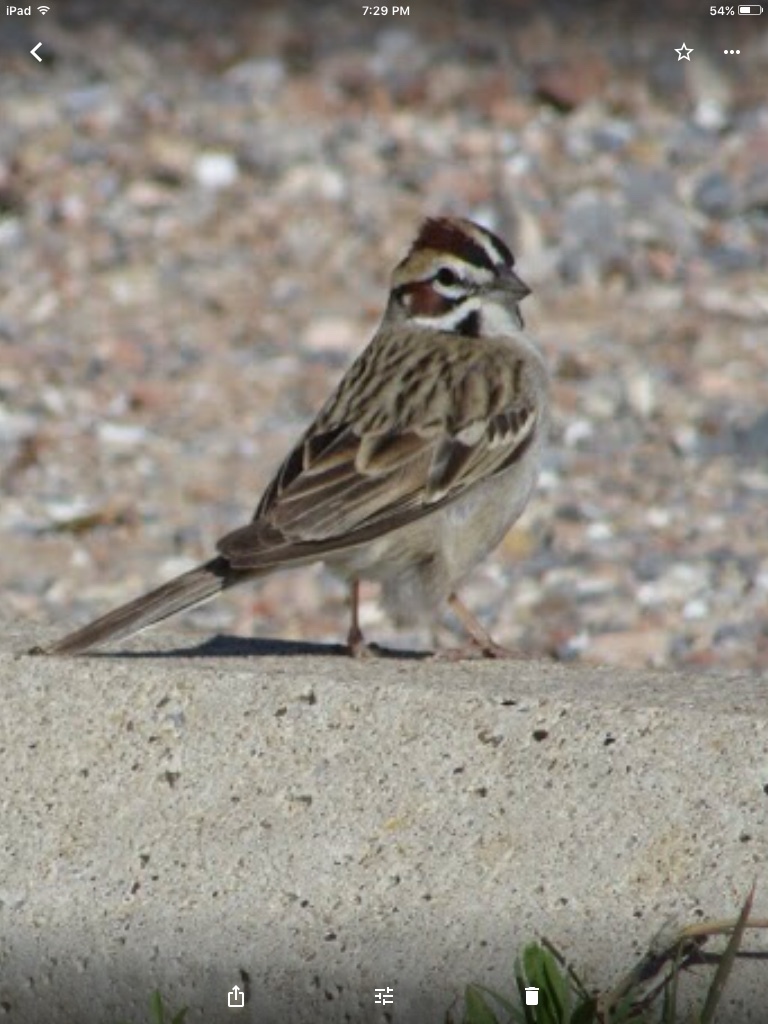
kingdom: Animalia
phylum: Chordata
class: Aves
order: Passeriformes
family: Passerellidae
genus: Chondestes
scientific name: Chondestes grammacus
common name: Lark sparrow
